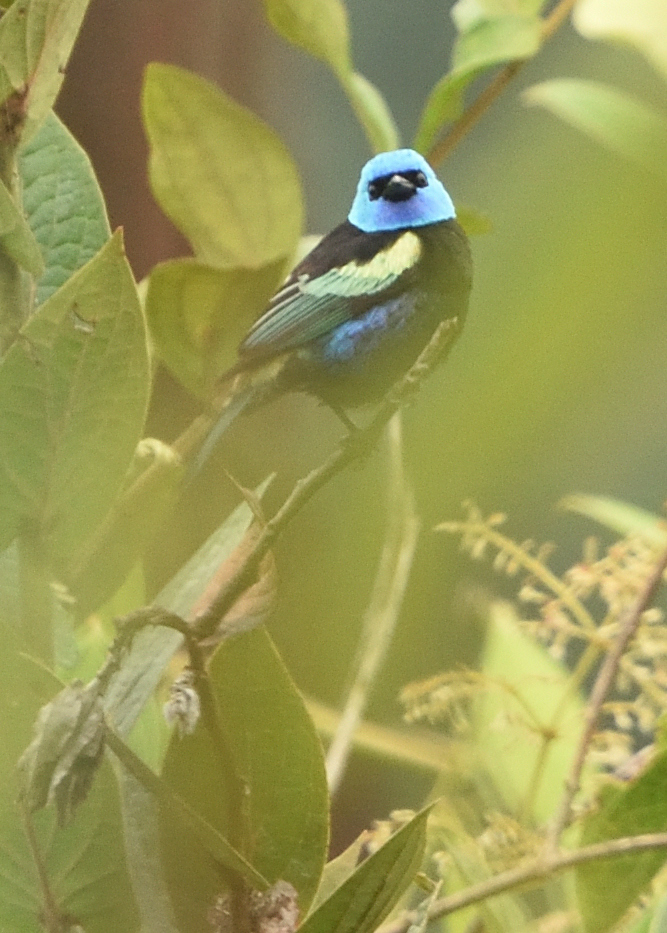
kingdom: Animalia
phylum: Chordata
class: Aves
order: Passeriformes
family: Thraupidae
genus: Stilpnia
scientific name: Stilpnia cyanicollis
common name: Blue-necked tanager
